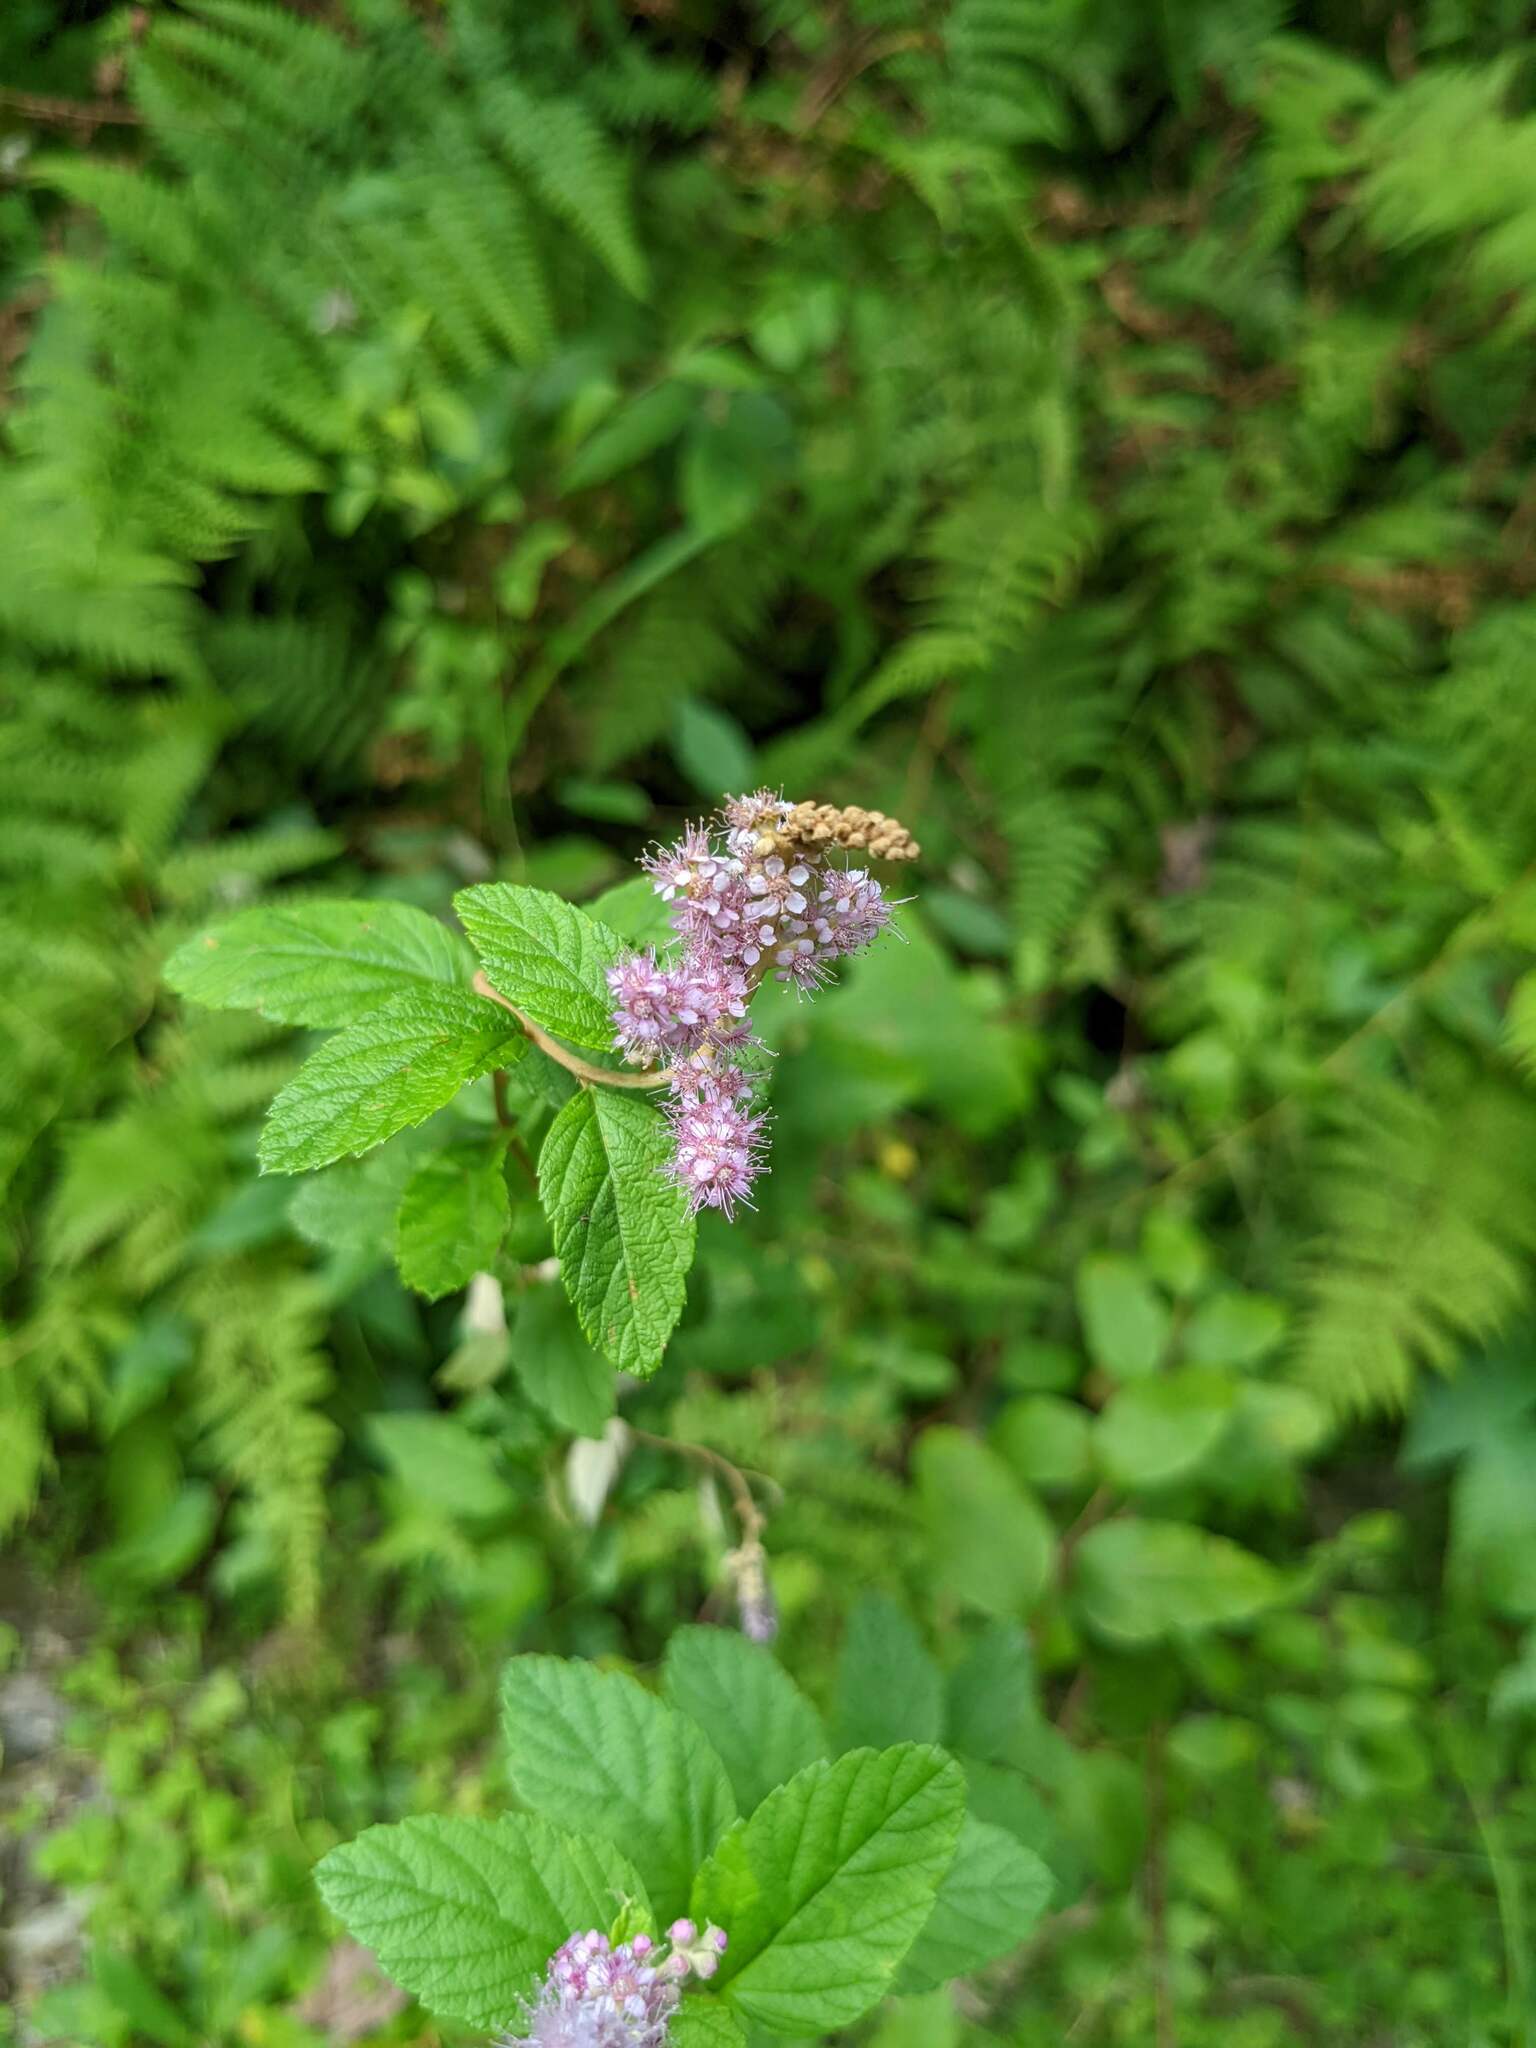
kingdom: Plantae
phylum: Tracheophyta
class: Magnoliopsida
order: Rosales
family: Rosaceae
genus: Spiraea
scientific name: Spiraea tomentosa
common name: Hardhack
